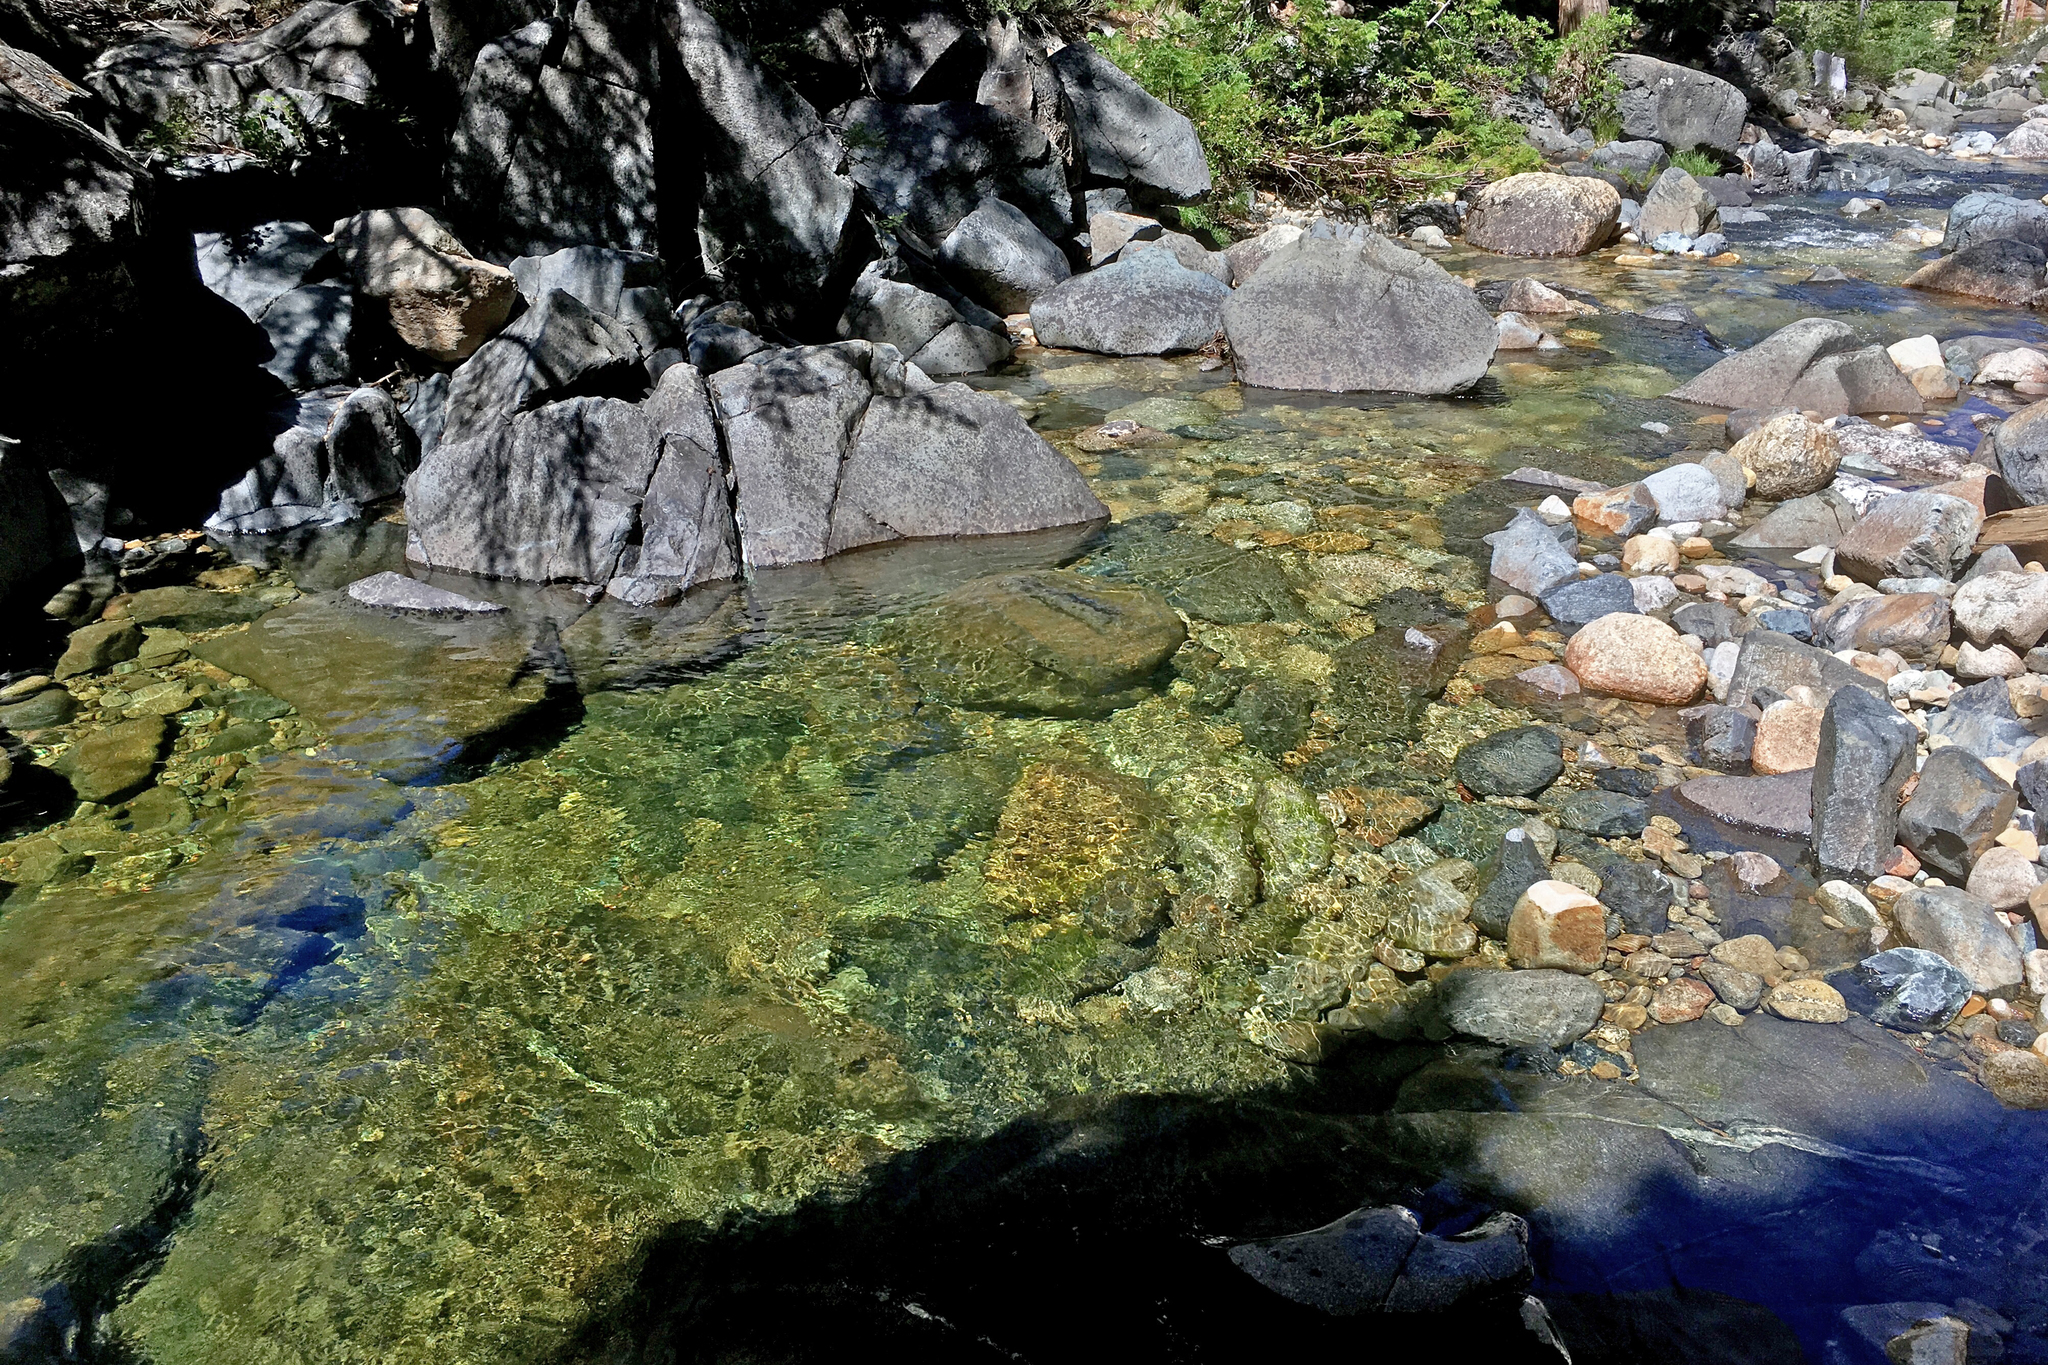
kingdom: Animalia
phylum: Chordata
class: Amphibia
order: Anura
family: Ranidae
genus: Rana
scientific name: Rana cascadae
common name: Cascades frog
